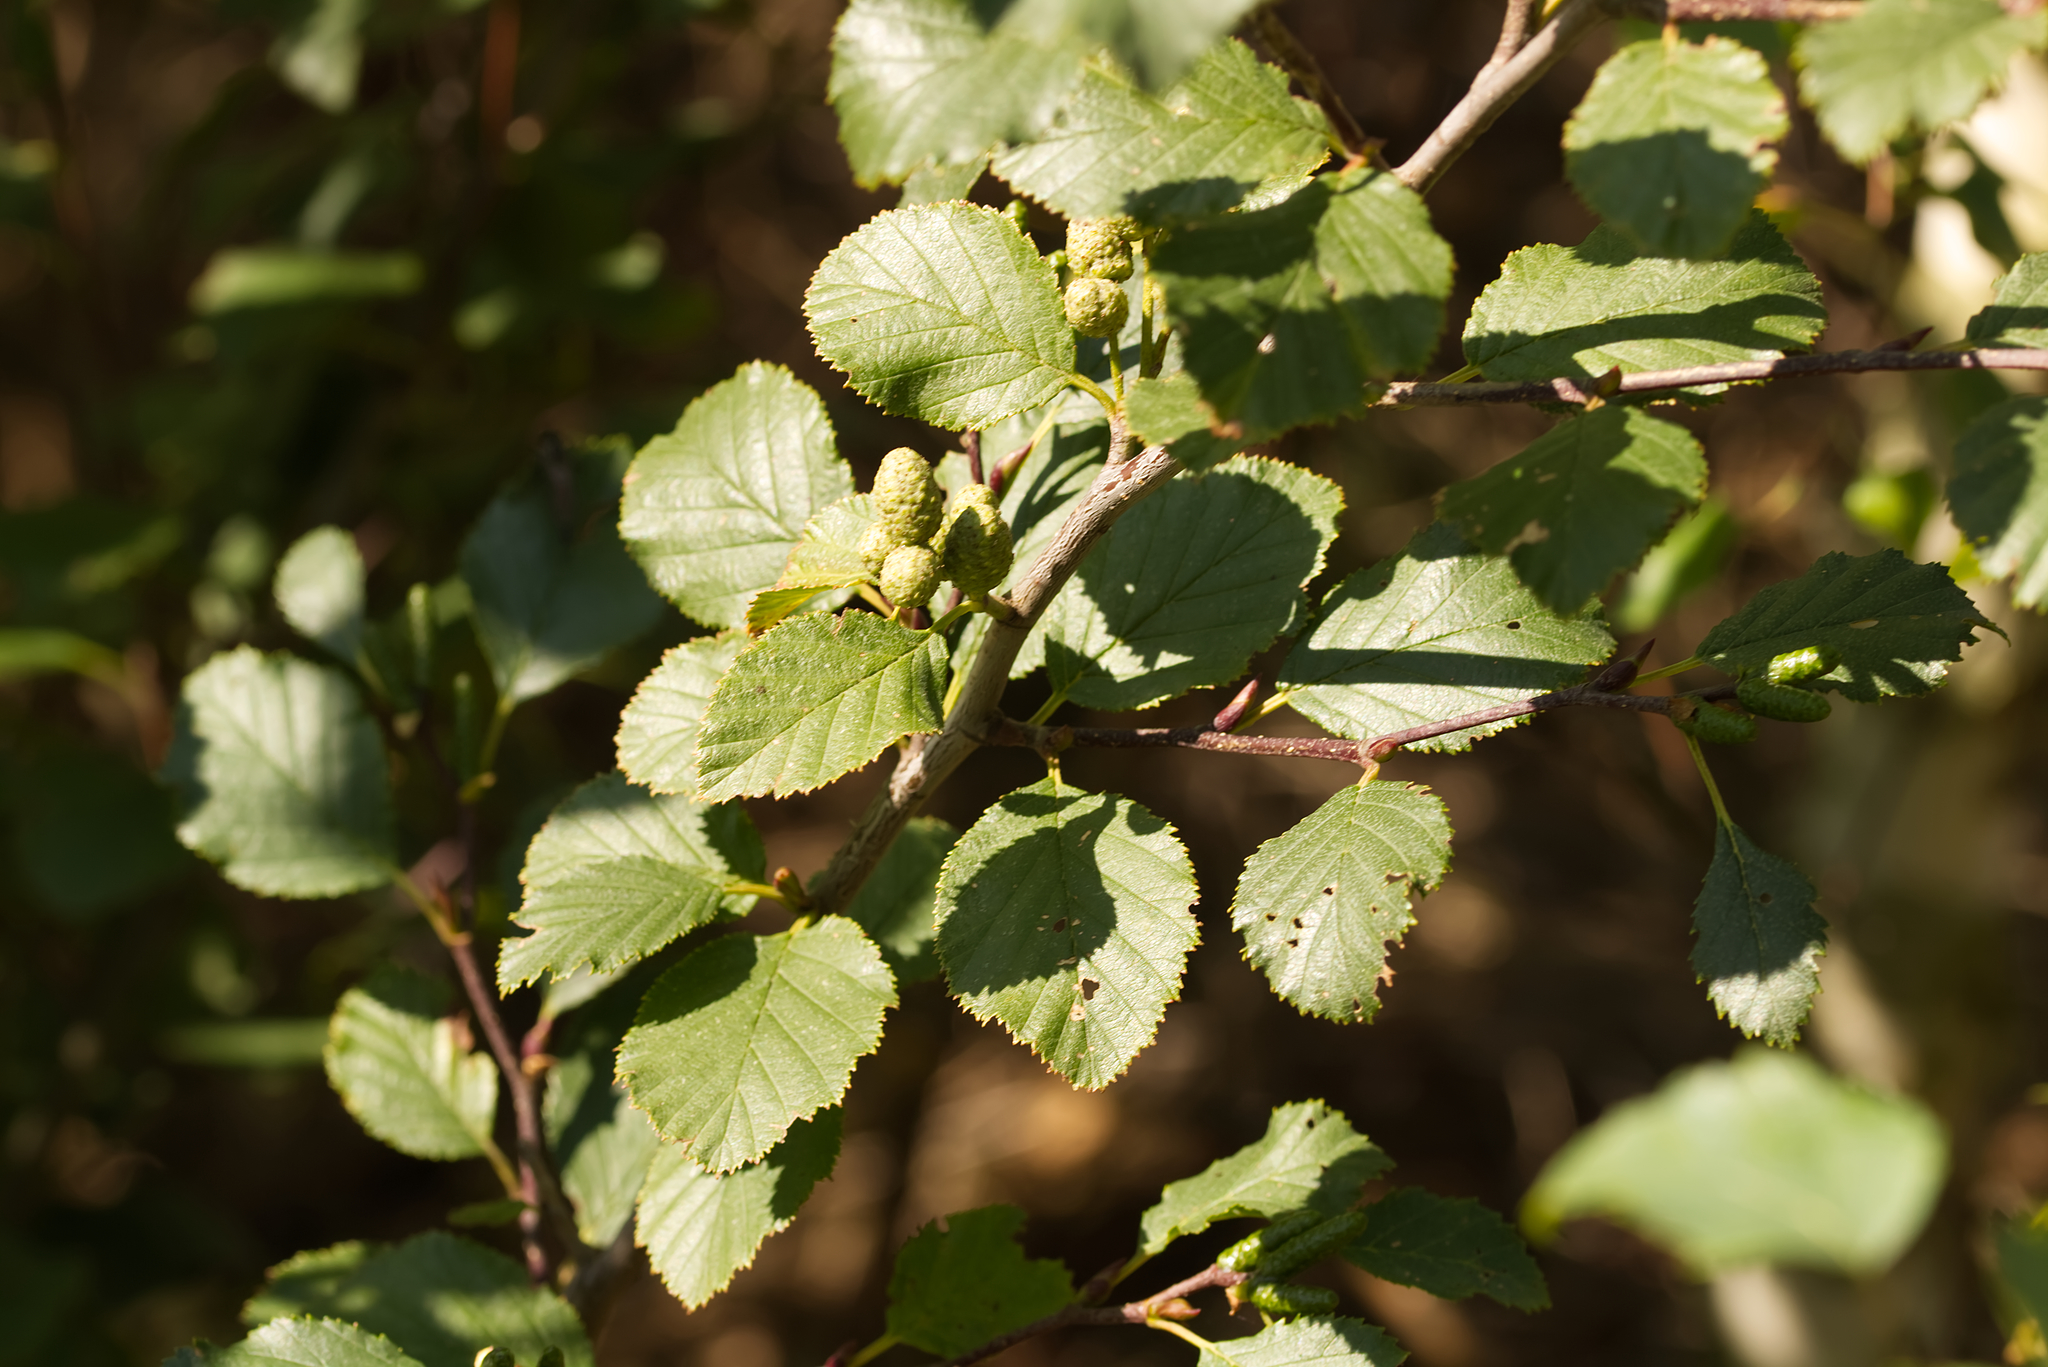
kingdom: Plantae
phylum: Tracheophyta
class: Magnoliopsida
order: Fagales
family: Betulaceae
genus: Alnus
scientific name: Alnus alnobetula
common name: Green alder
